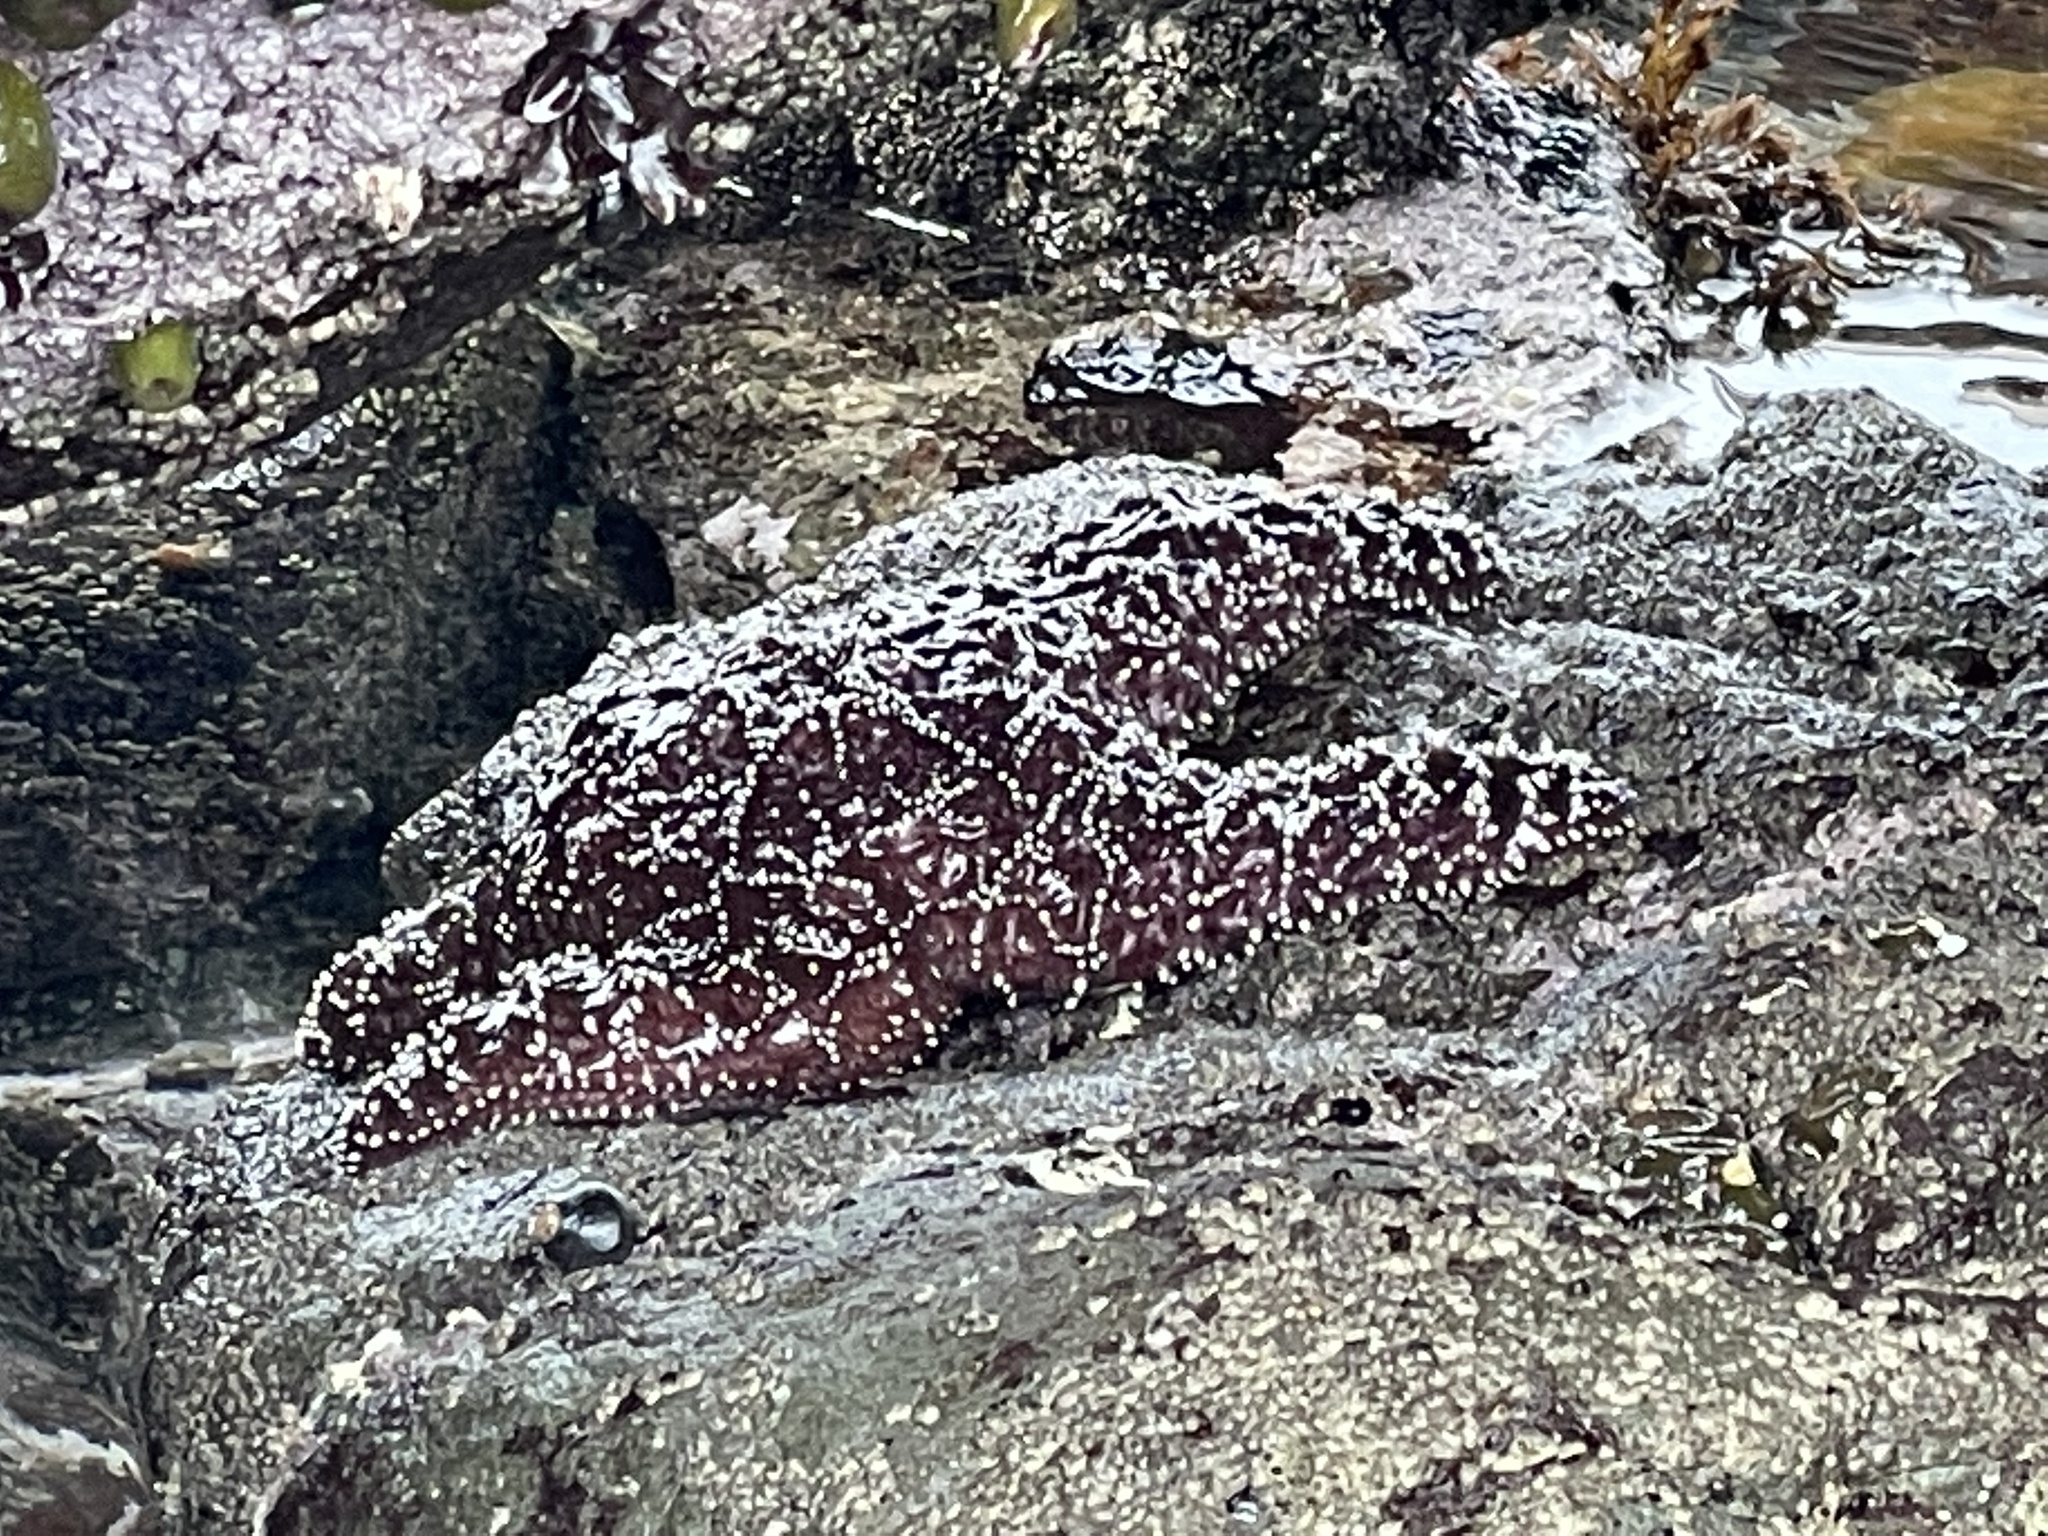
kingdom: Animalia
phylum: Echinodermata
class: Asteroidea
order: Forcipulatida
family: Asteriidae
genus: Pisaster
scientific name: Pisaster ochraceus
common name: Ochre stars
